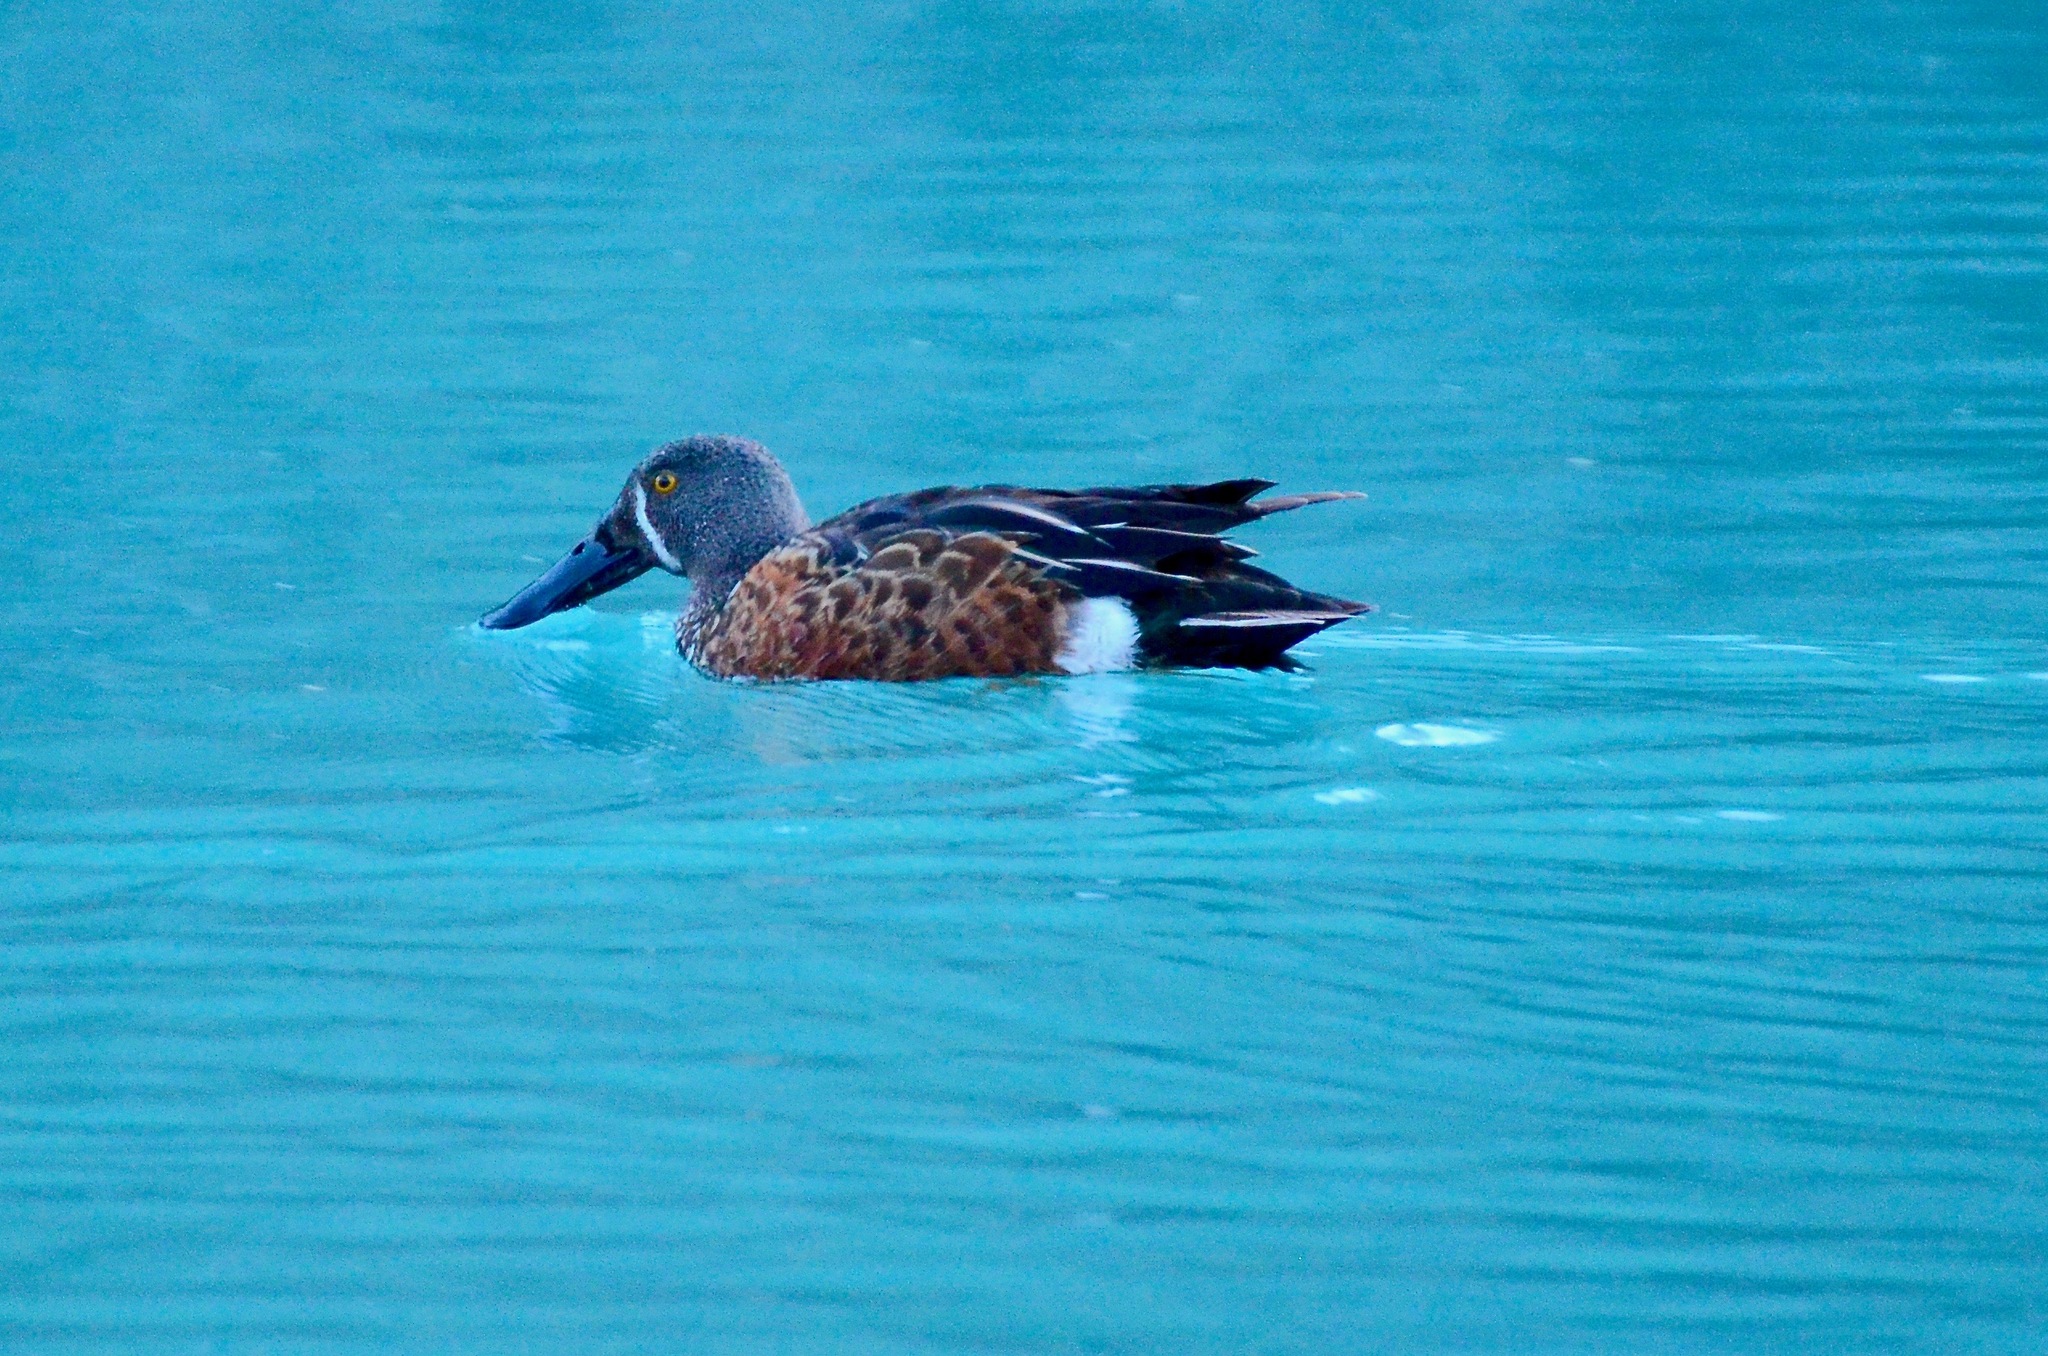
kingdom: Animalia
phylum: Chordata
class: Aves
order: Anseriformes
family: Anatidae
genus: Spatula
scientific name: Spatula rhynchotis
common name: Australian shoveler
